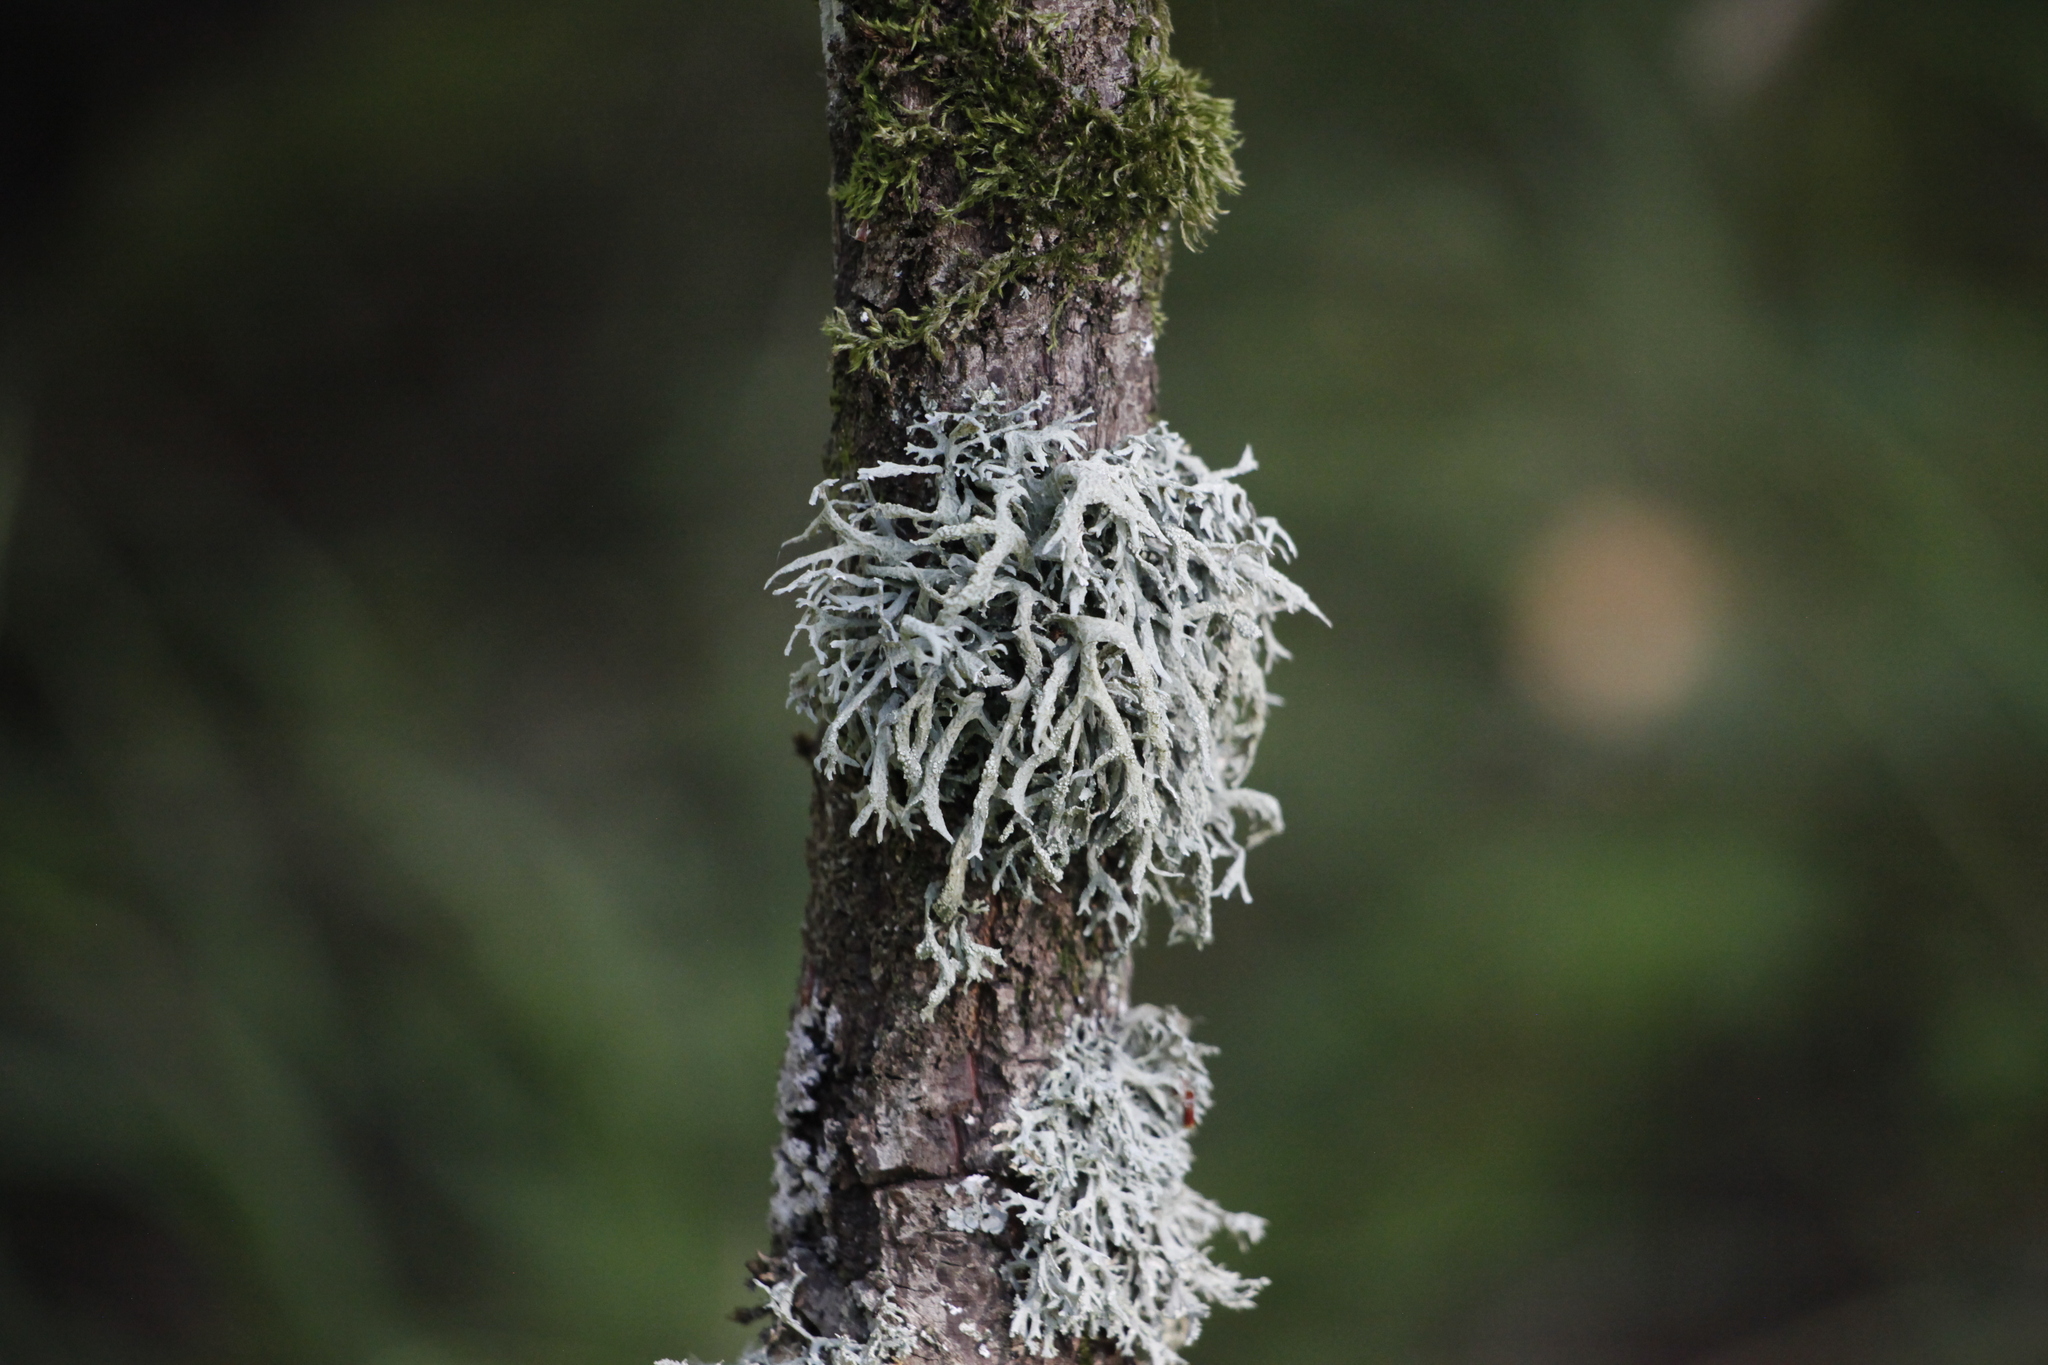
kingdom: Fungi
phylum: Ascomycota
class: Lecanoromycetes
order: Lecanorales
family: Ramalinaceae
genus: Ramalina
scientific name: Ramalina farinacea
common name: Farinose cartilage lichen
